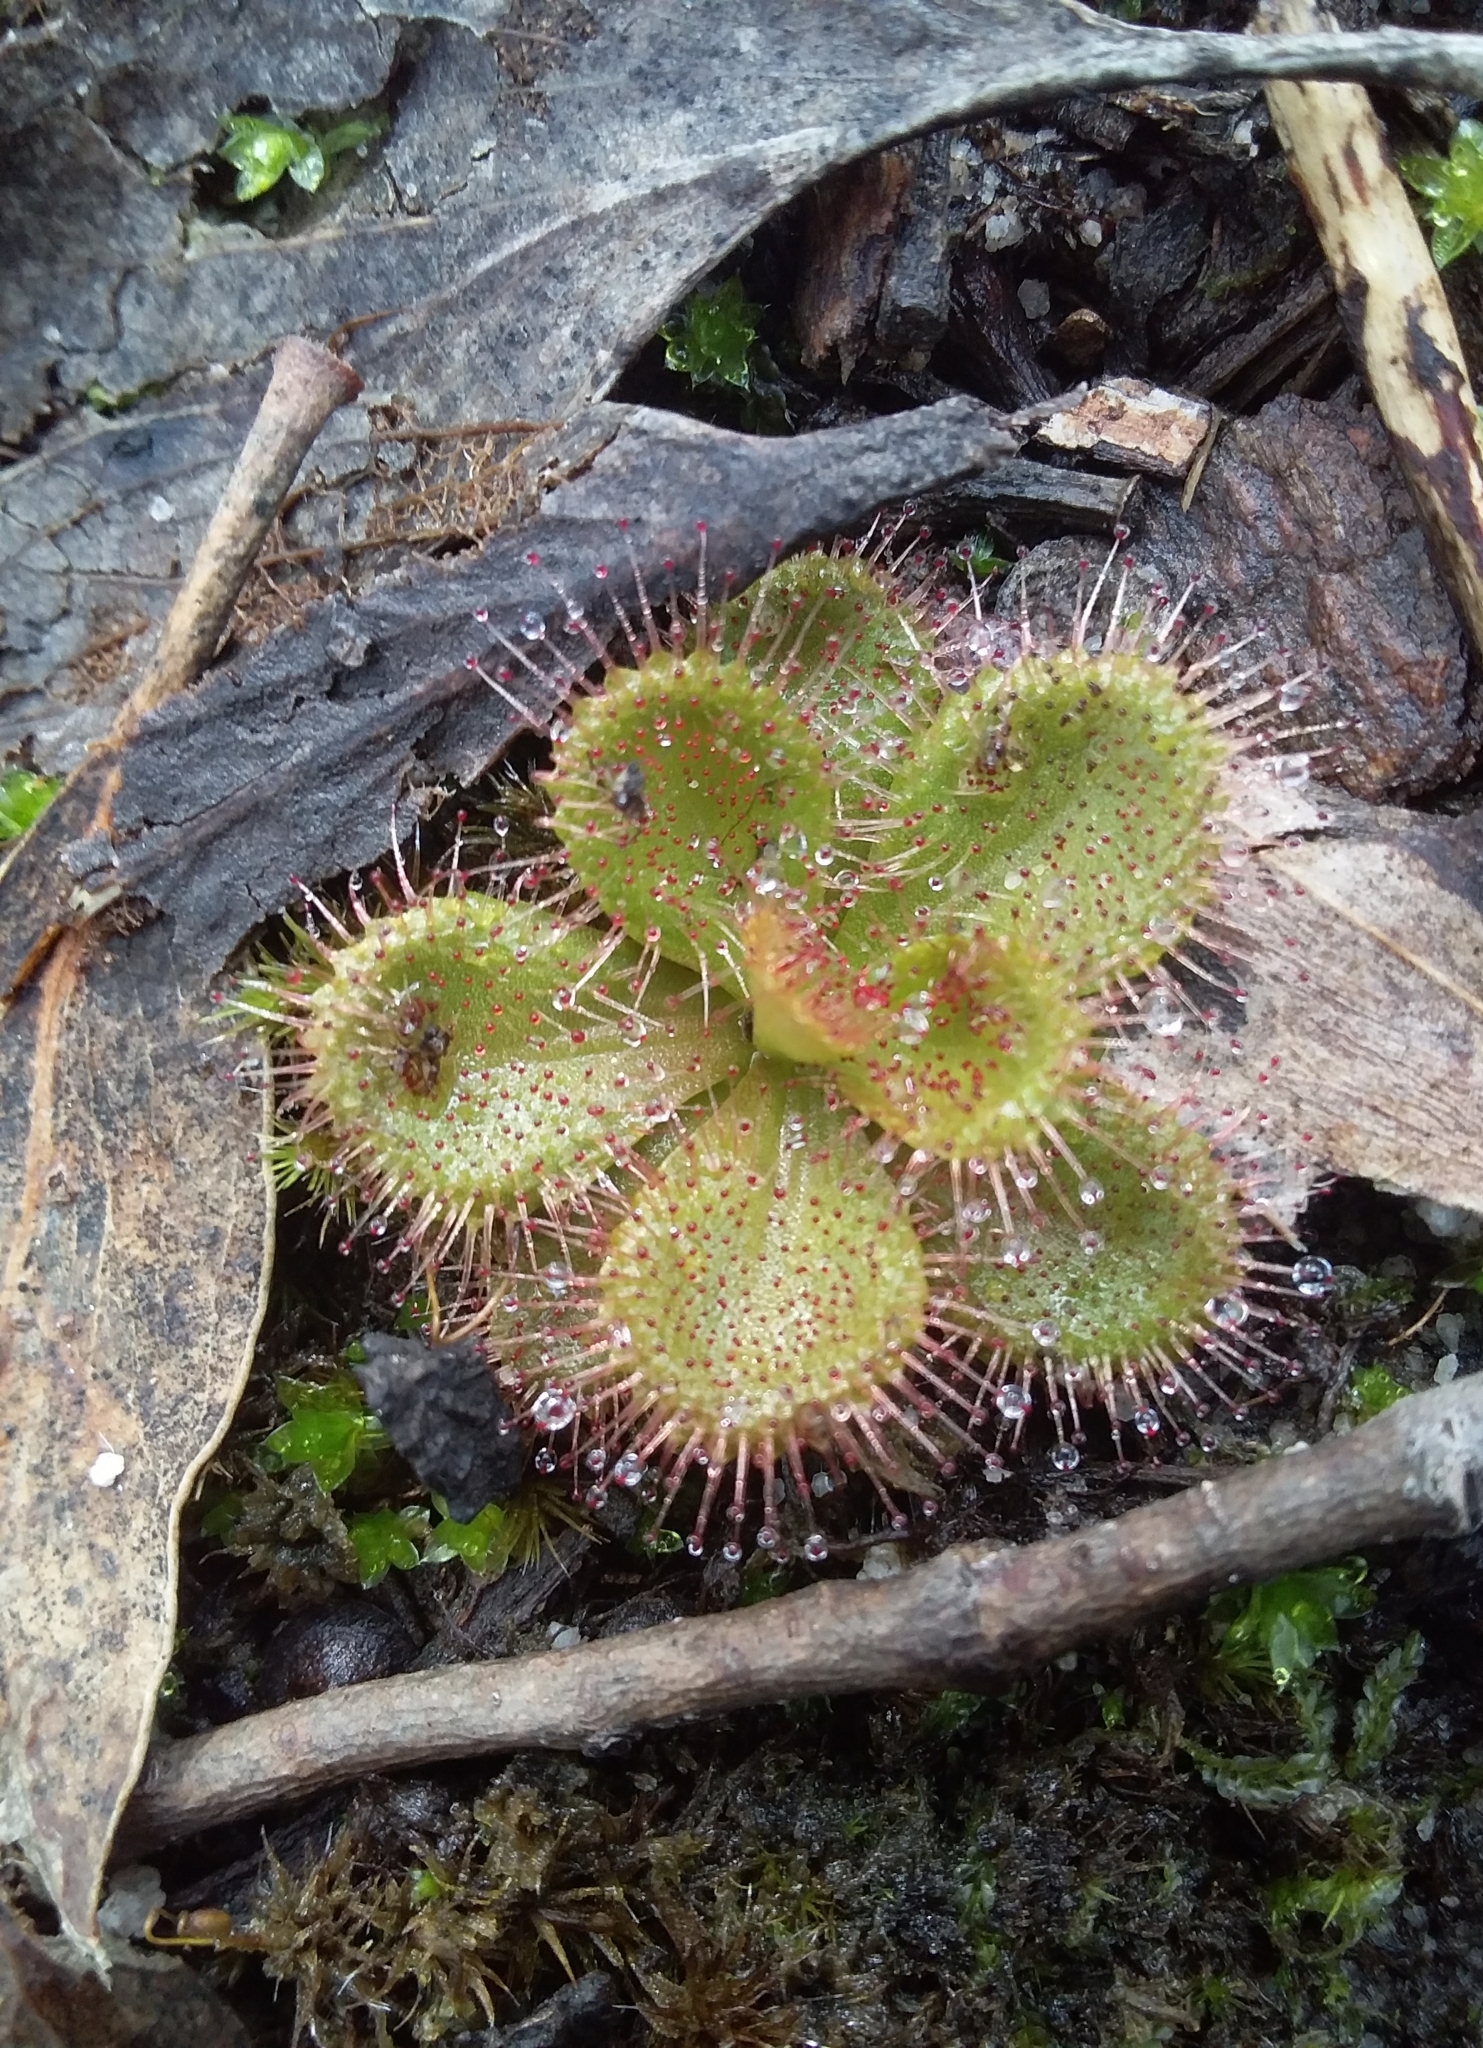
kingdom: Plantae
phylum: Tracheophyta
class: Magnoliopsida
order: Caryophyllales
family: Droseraceae
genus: Drosera
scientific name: Drosera whittakeri
